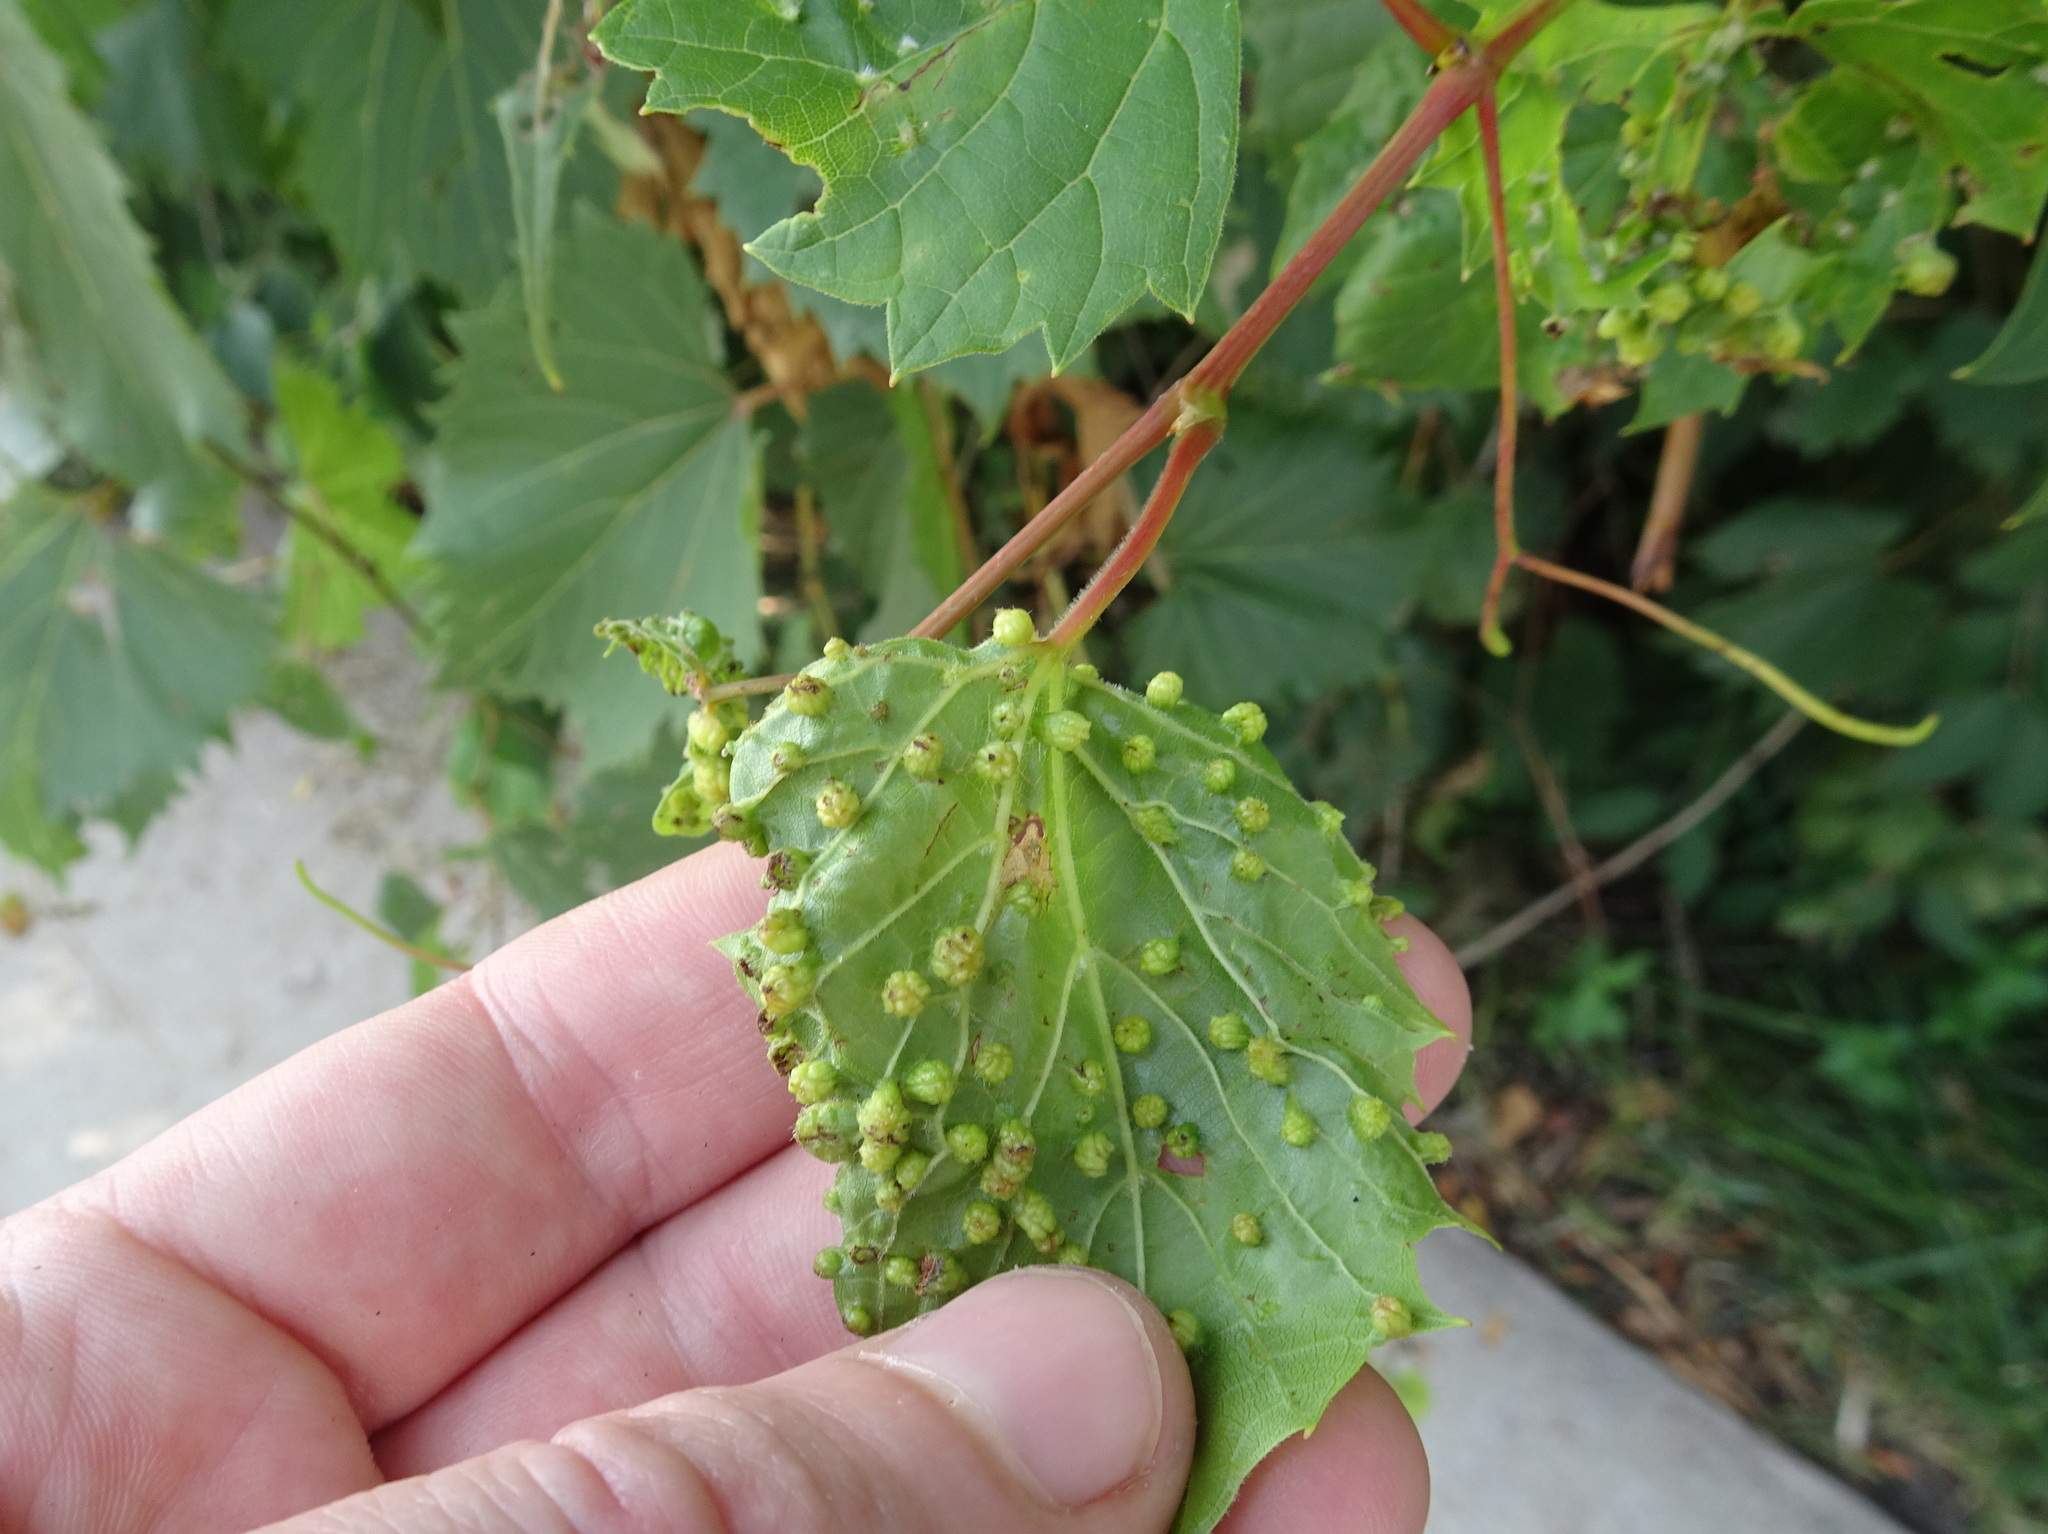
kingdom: Animalia
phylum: Arthropoda
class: Insecta
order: Hemiptera
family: Phylloxeridae
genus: Daktulosphaira
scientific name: Daktulosphaira vitifoliae
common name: Grape phylloxera
